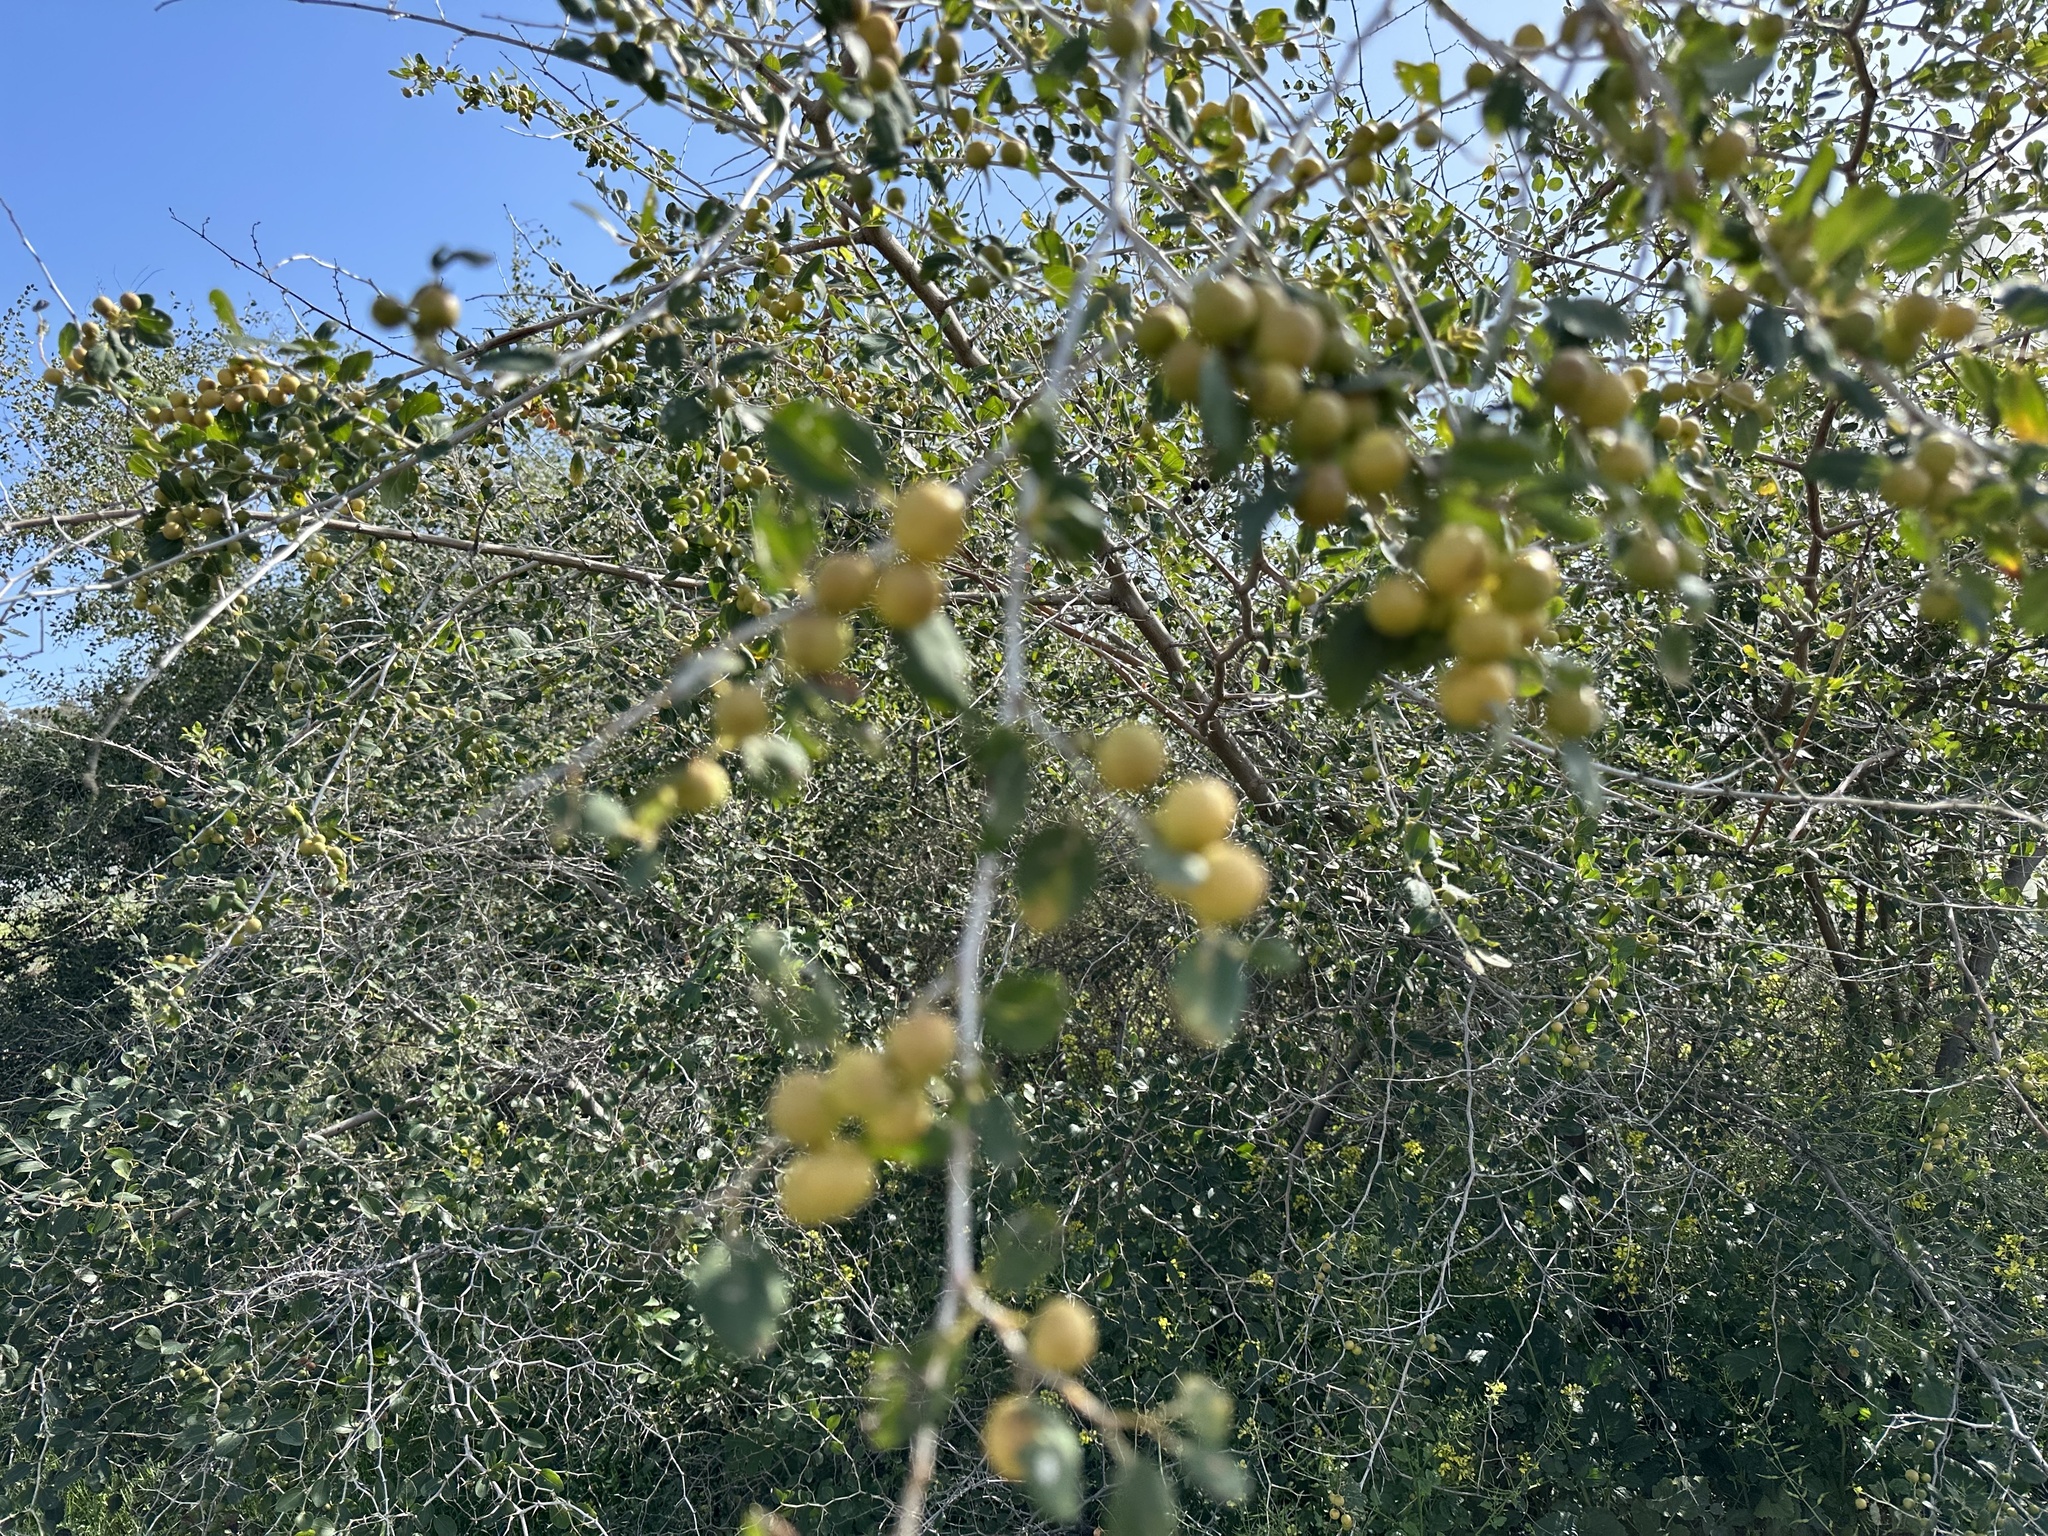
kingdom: Plantae
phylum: Tracheophyta
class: Magnoliopsida
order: Rosales
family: Rhamnaceae
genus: Ziziphus
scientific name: Ziziphus spina-christi
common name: Syrian christ-thorn
